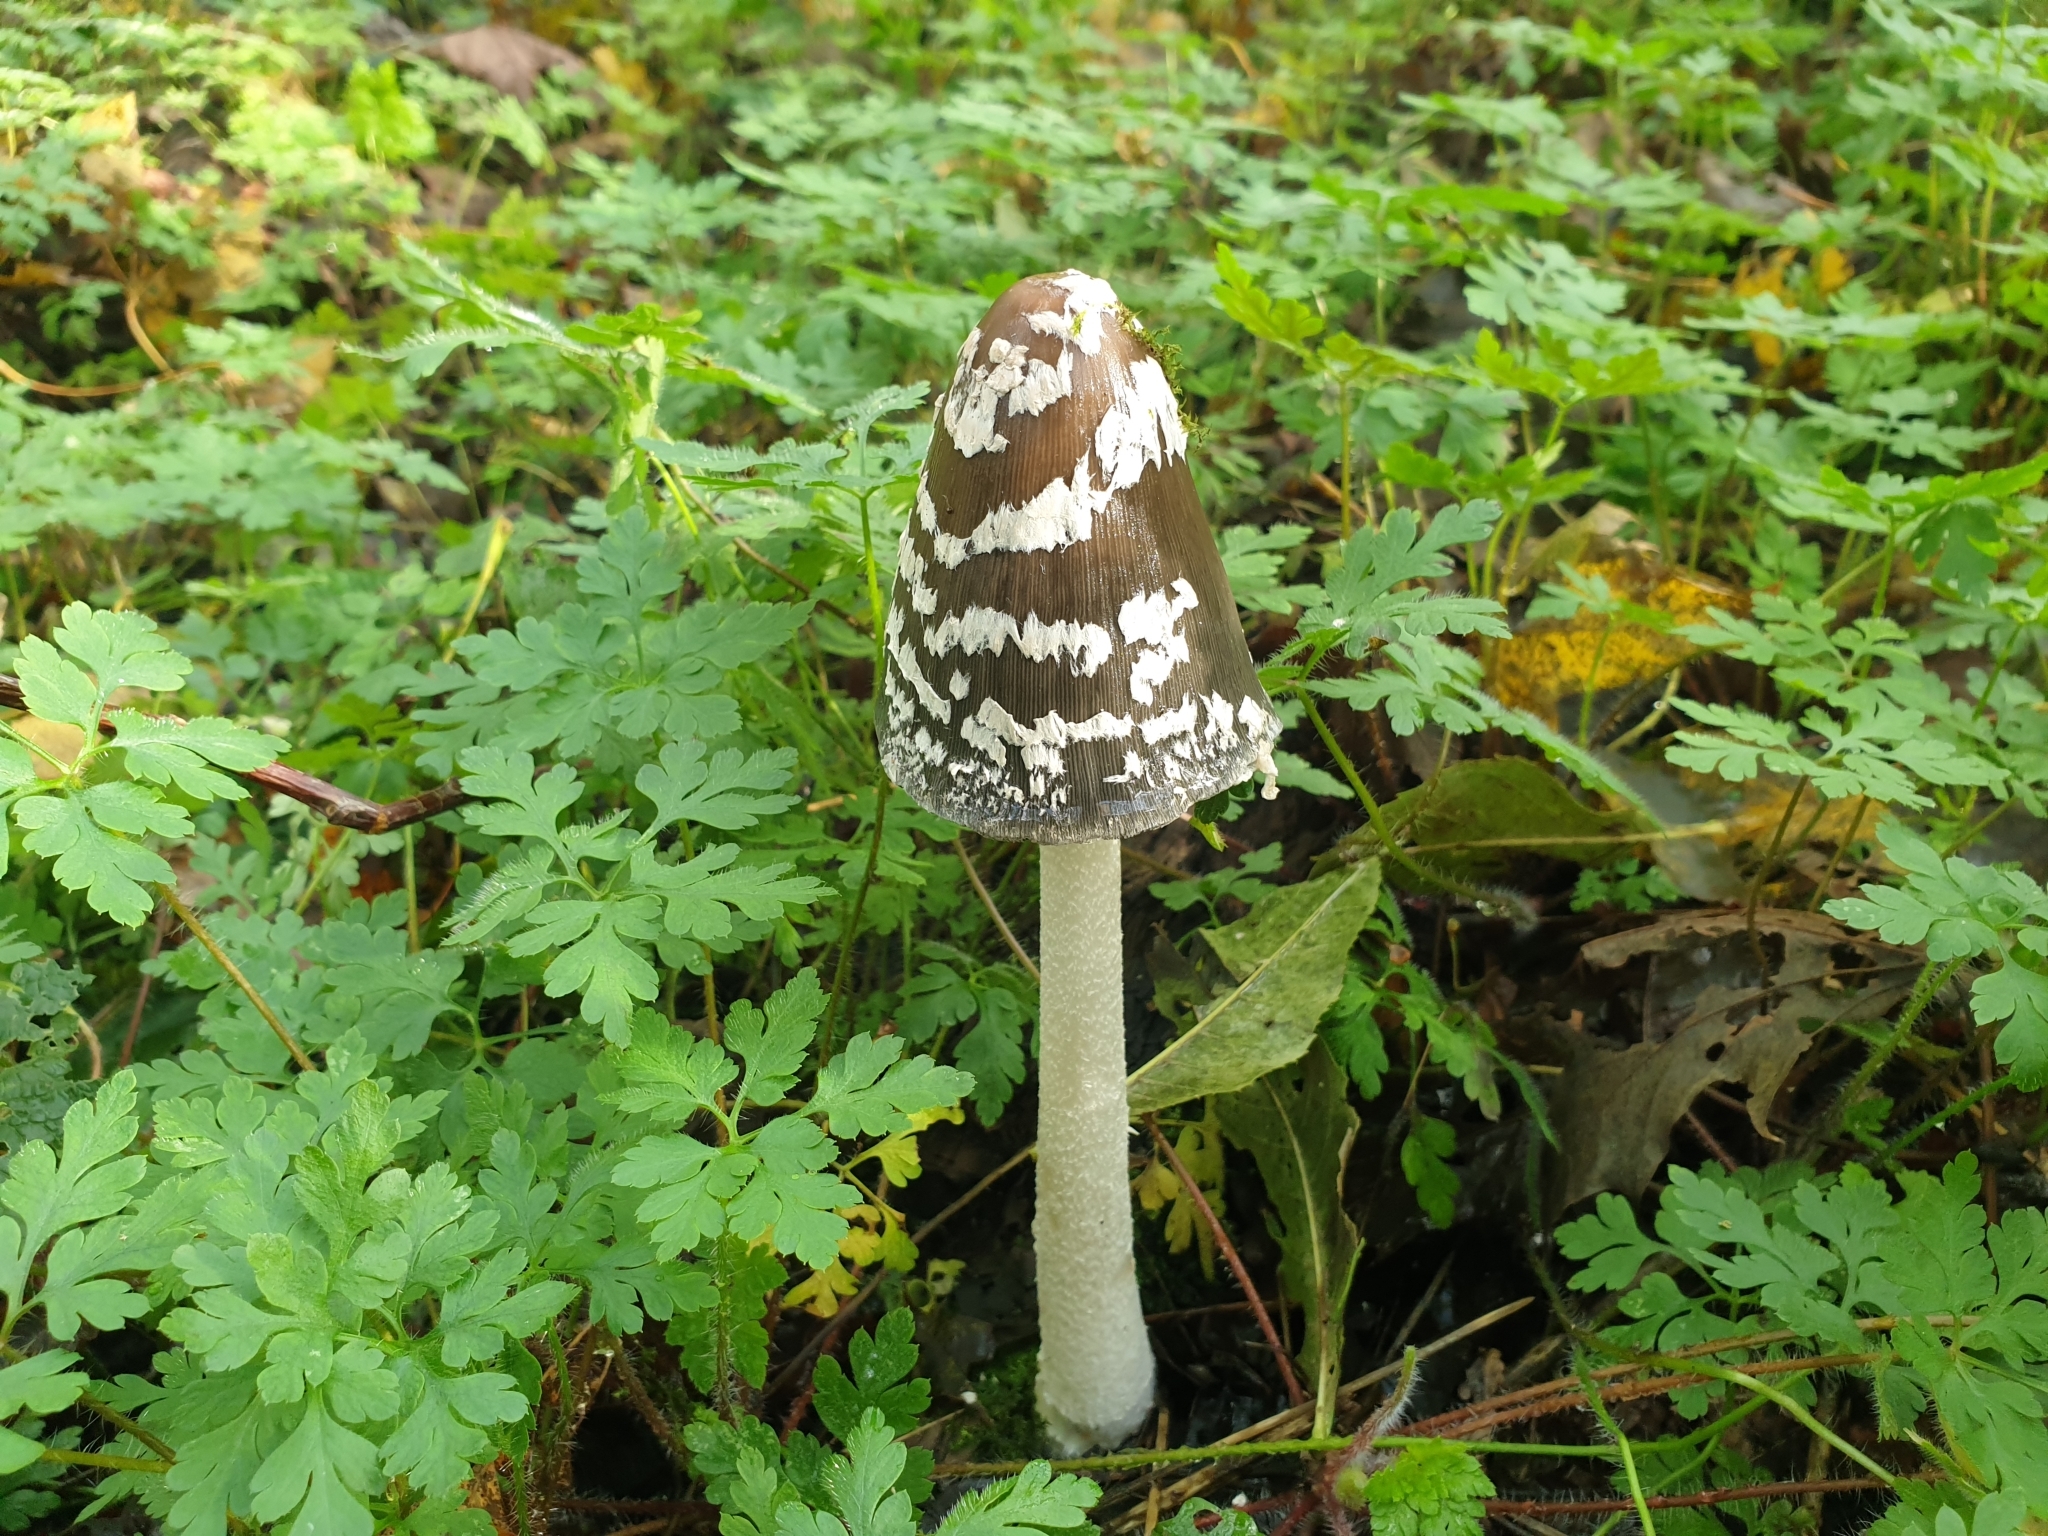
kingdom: Fungi
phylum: Basidiomycota
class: Agaricomycetes
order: Agaricales
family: Psathyrellaceae
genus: Coprinopsis
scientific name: Coprinopsis picacea
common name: Magpie inkcap
